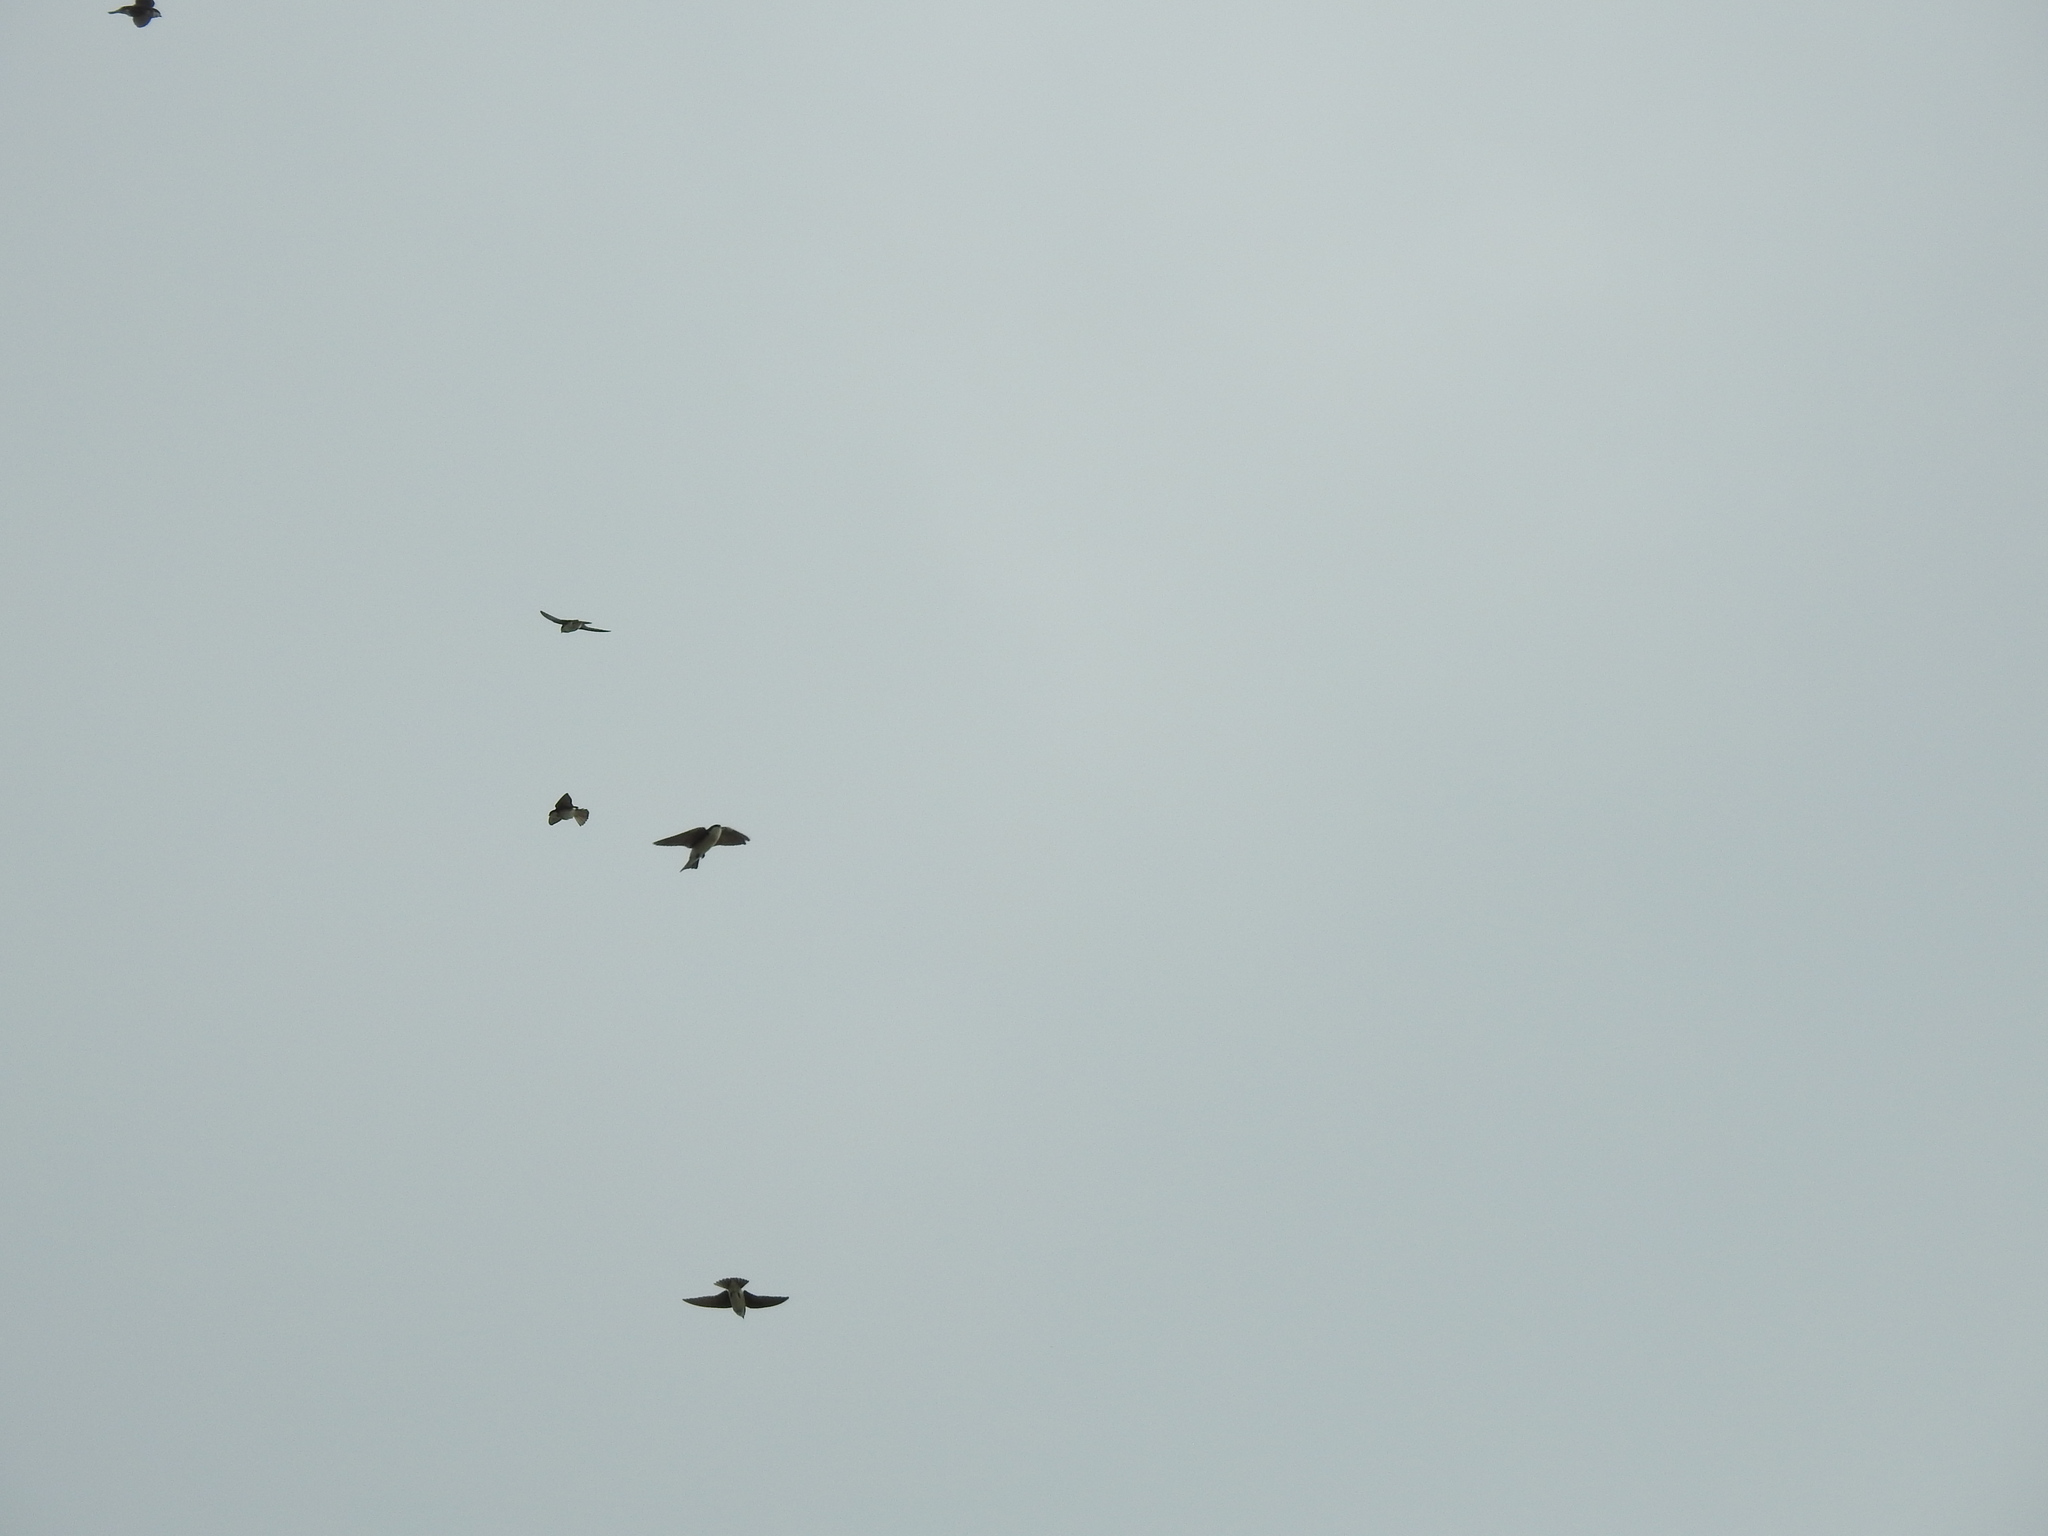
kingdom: Animalia
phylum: Chordata
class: Aves
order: Passeriformes
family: Hirundinidae
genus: Tachycineta
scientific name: Tachycineta bicolor
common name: Tree swallow
